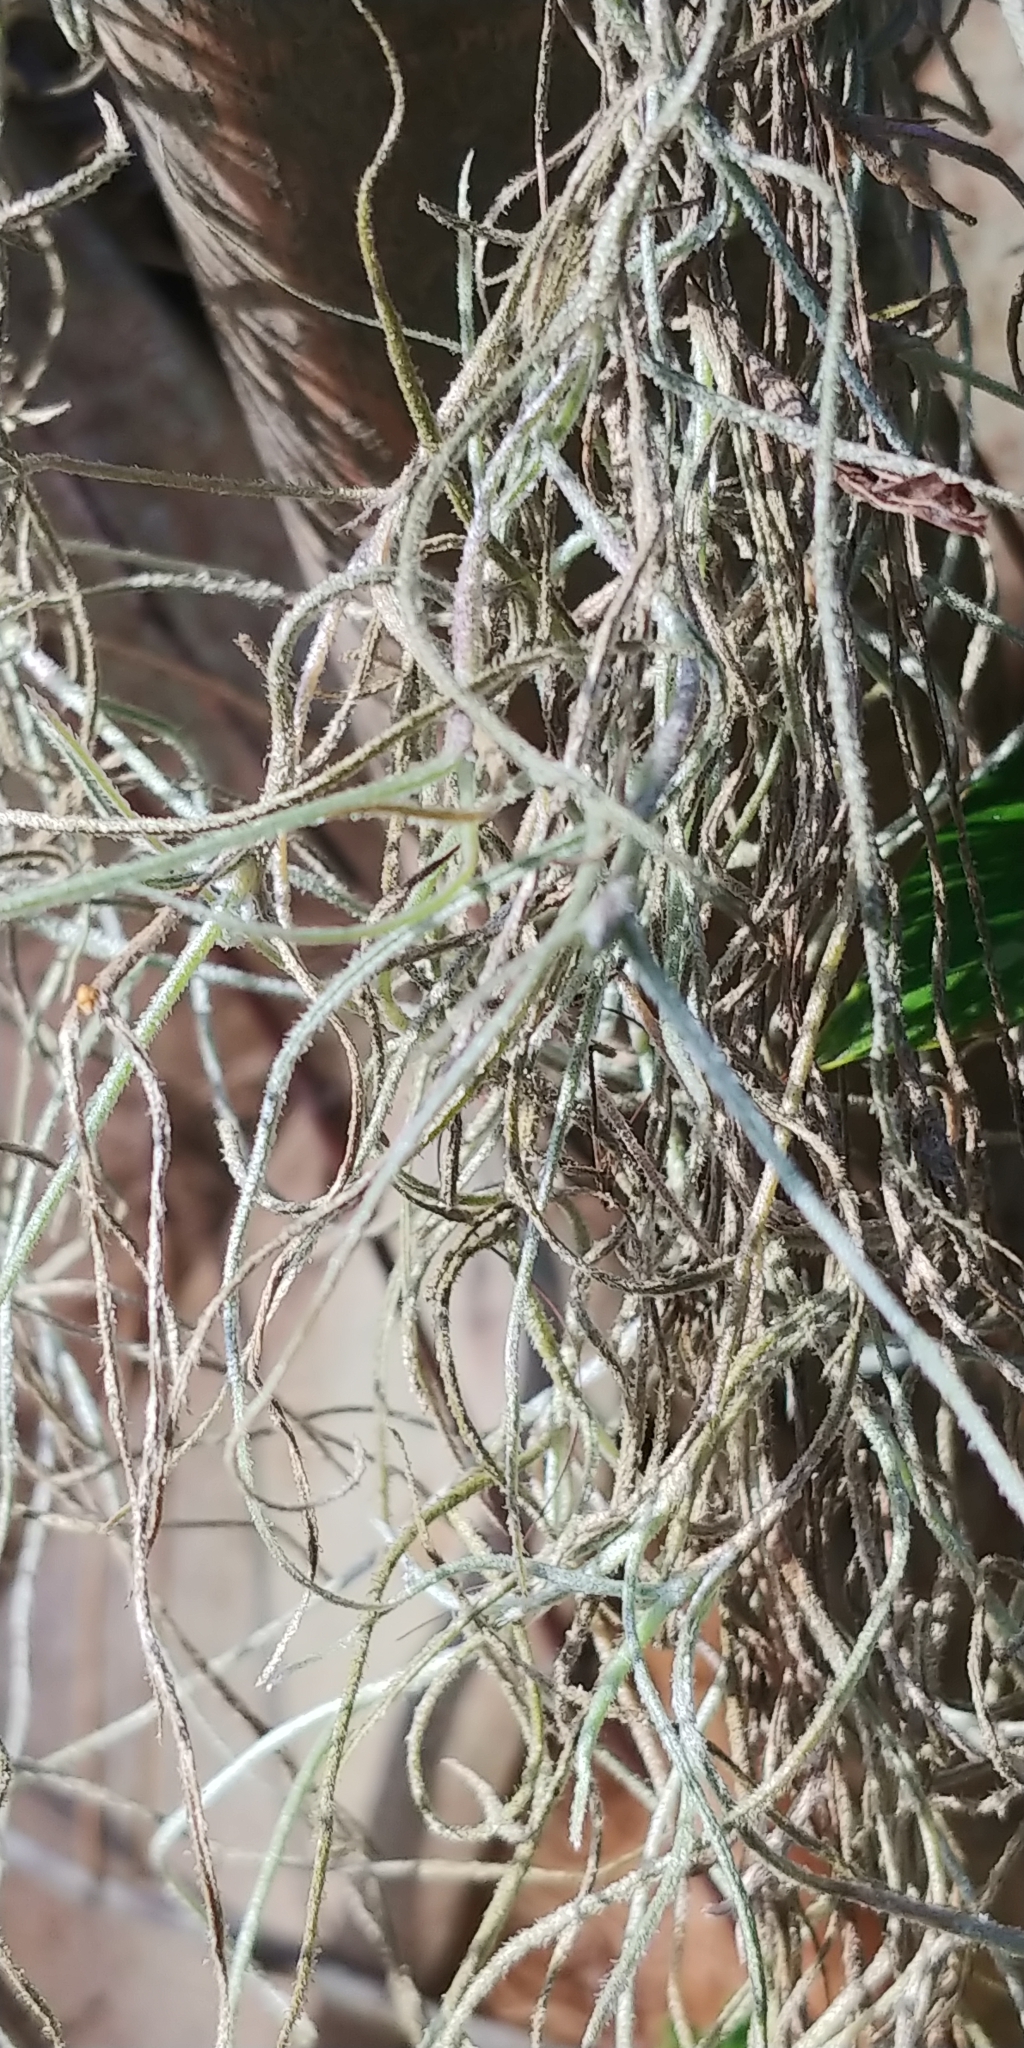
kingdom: Plantae
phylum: Tracheophyta
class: Liliopsida
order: Poales
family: Bromeliaceae
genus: Tillandsia
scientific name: Tillandsia usneoides
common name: Spanish moss
